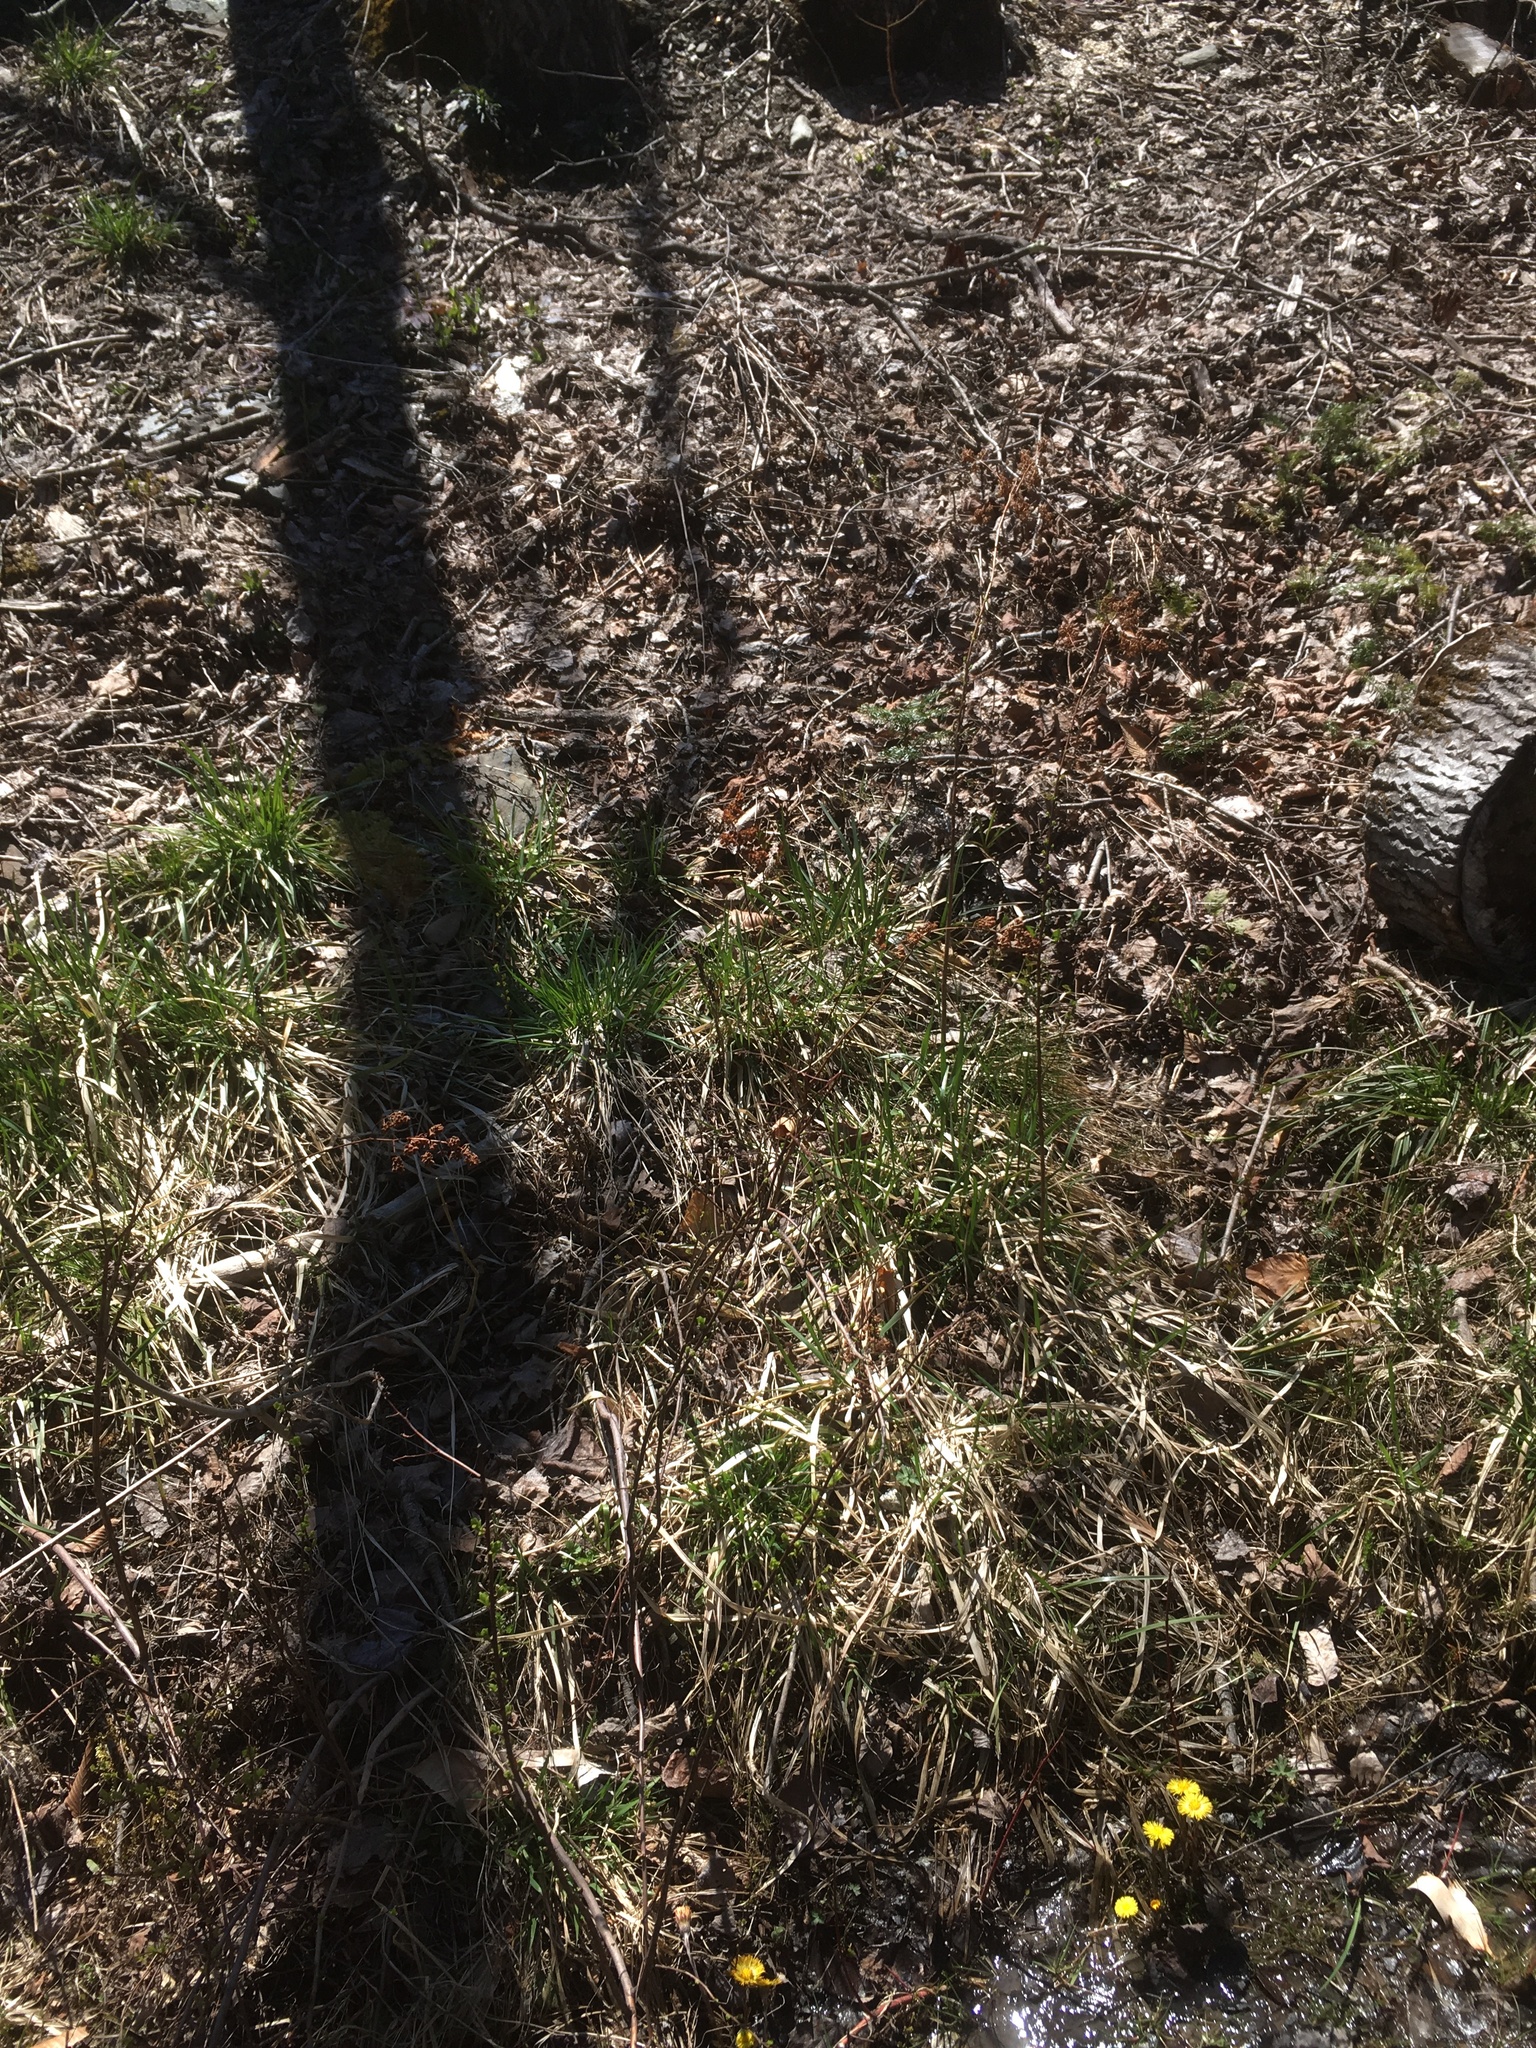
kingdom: Plantae
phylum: Tracheophyta
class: Magnoliopsida
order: Rosales
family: Rosaceae
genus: Spiraea
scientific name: Spiraea alba
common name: Pale bridewort
